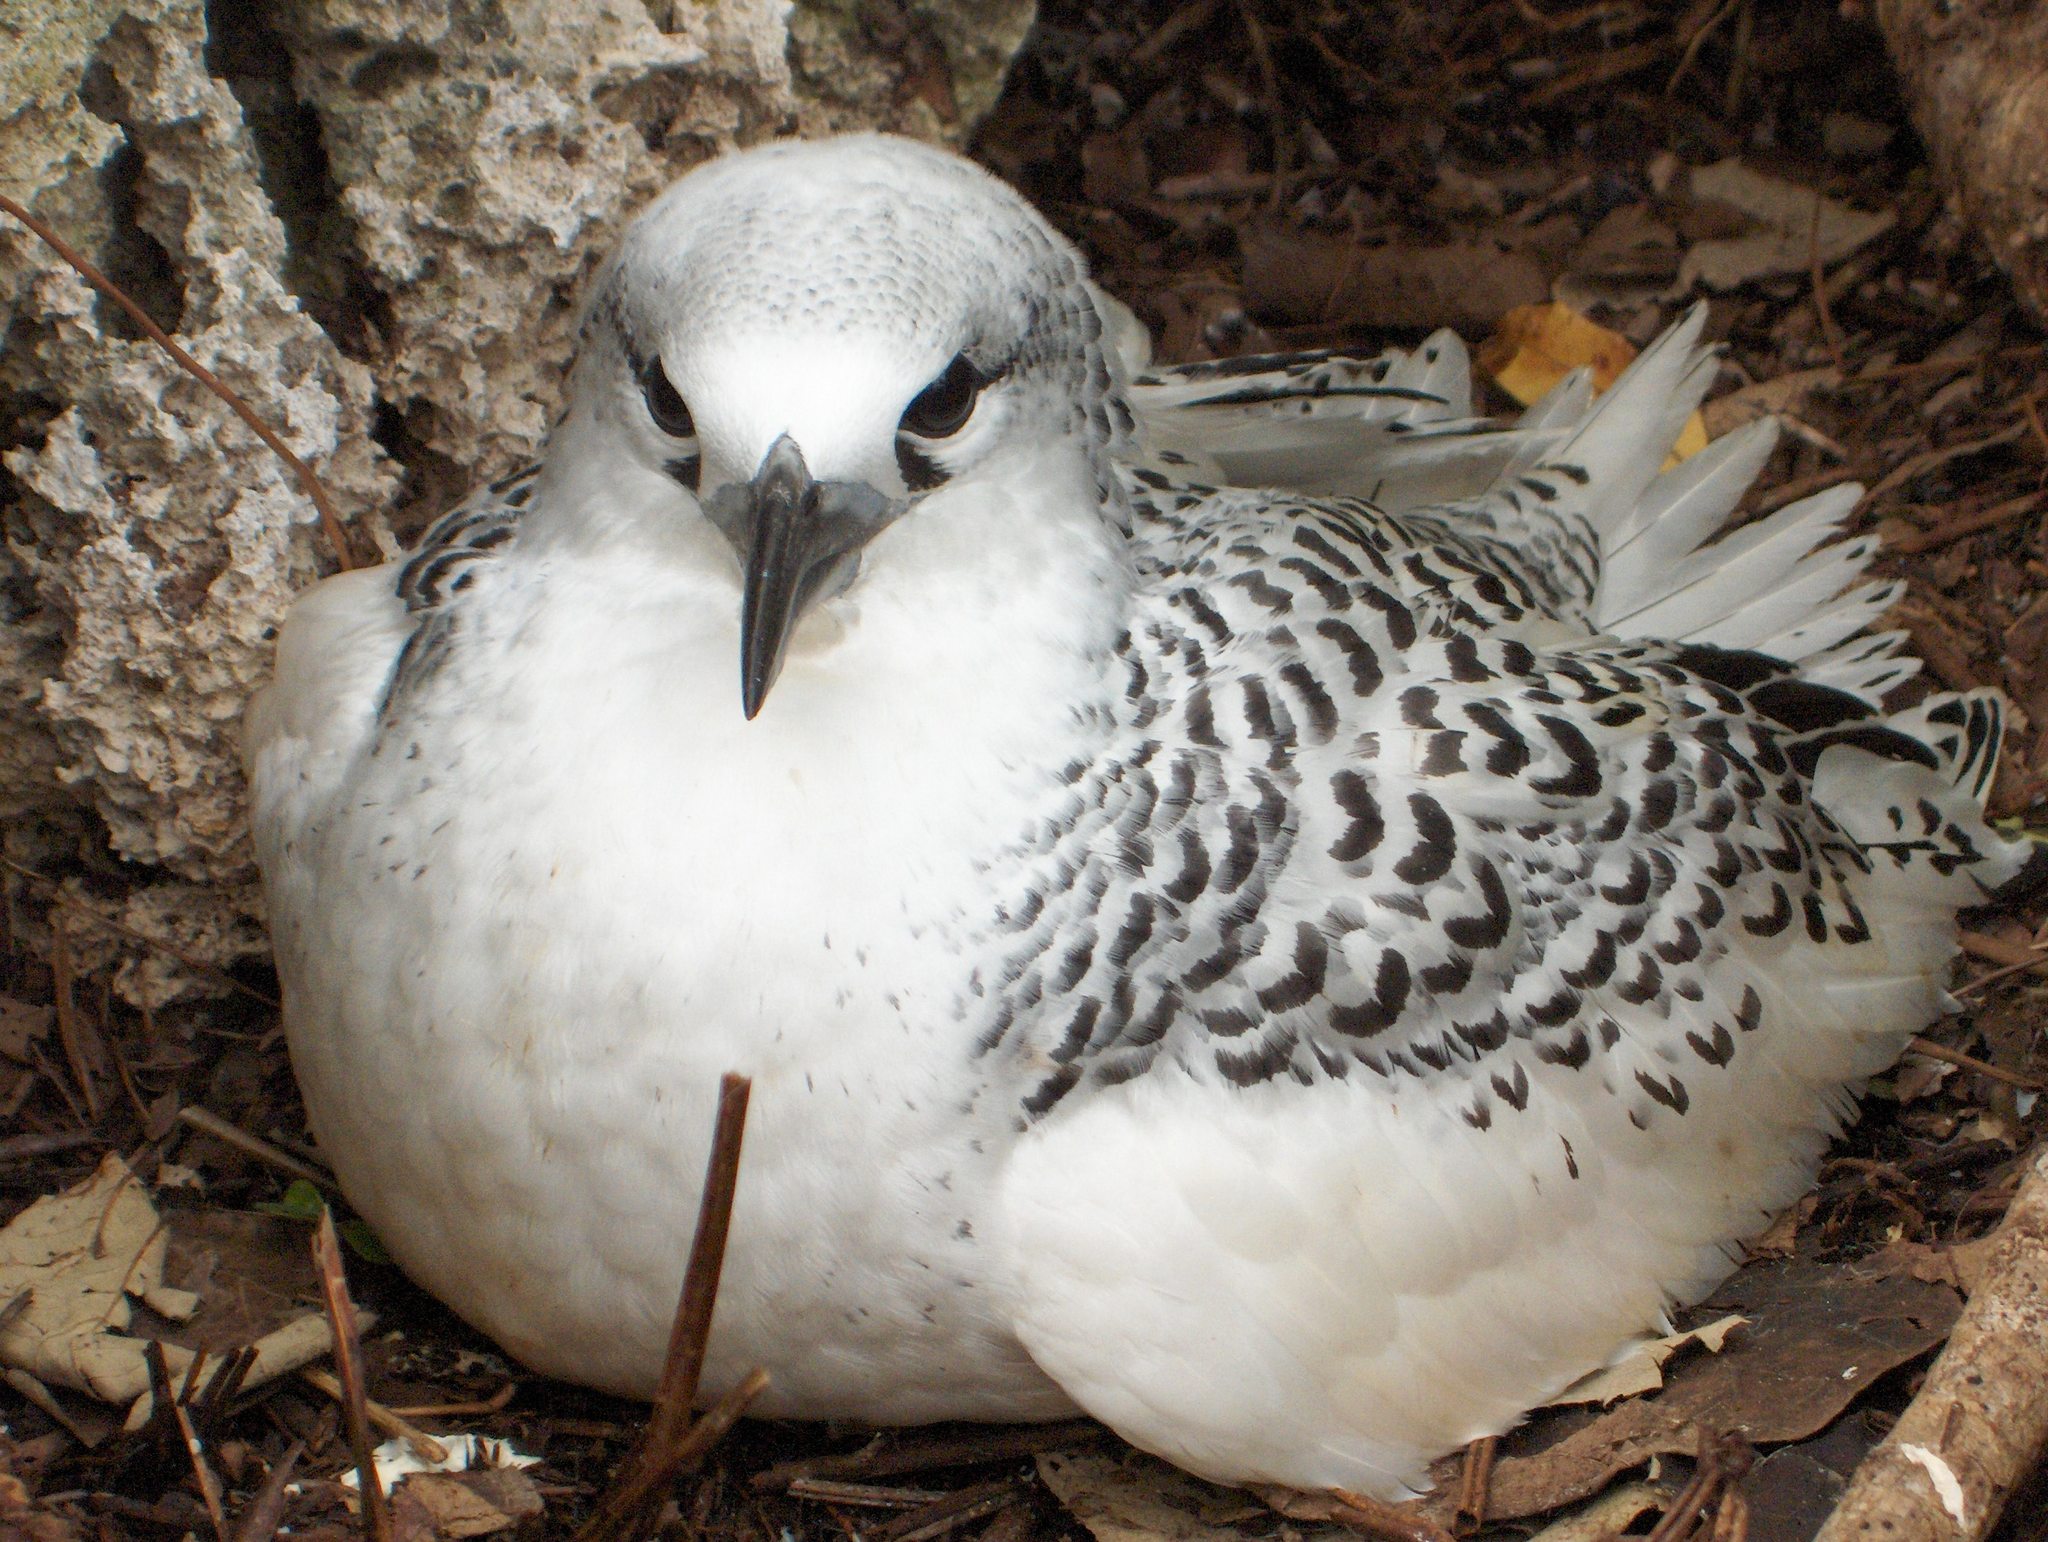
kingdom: Animalia
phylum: Chordata
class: Aves
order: Phaethontiformes
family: Phaethontidae
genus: Phaethon
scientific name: Phaethon rubricauda
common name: Red-tailed tropicbird
